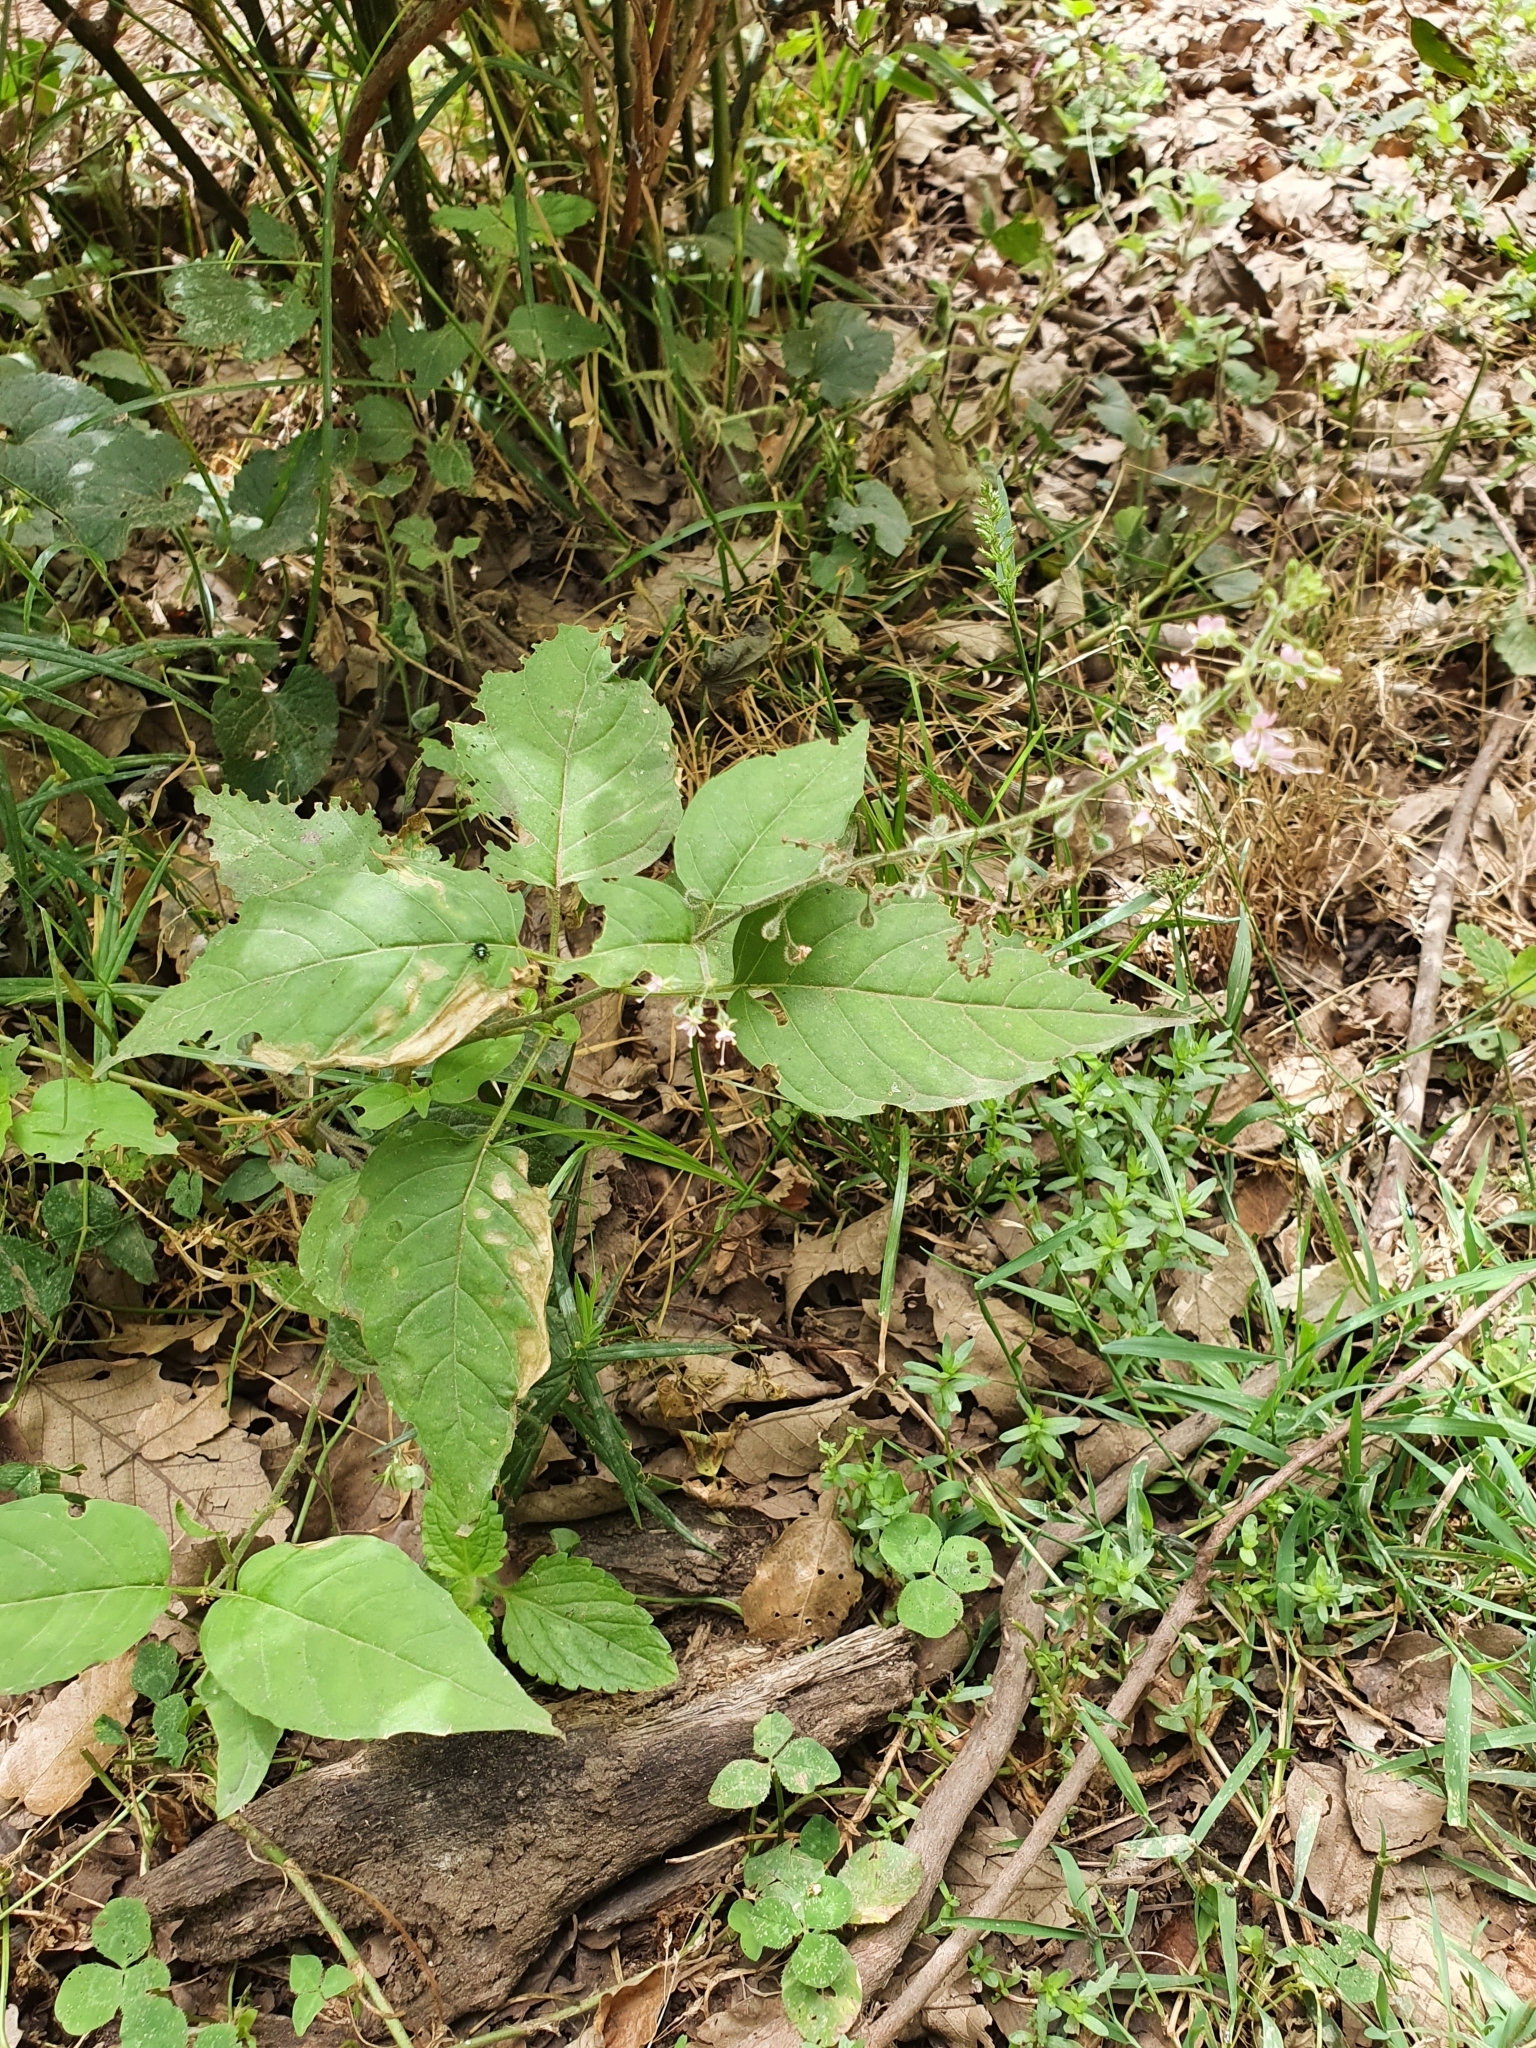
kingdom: Plantae
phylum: Tracheophyta
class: Magnoliopsida
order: Myrtales
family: Onagraceae
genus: Circaea
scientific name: Circaea lutetiana
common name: Enchanter's-nightshade
